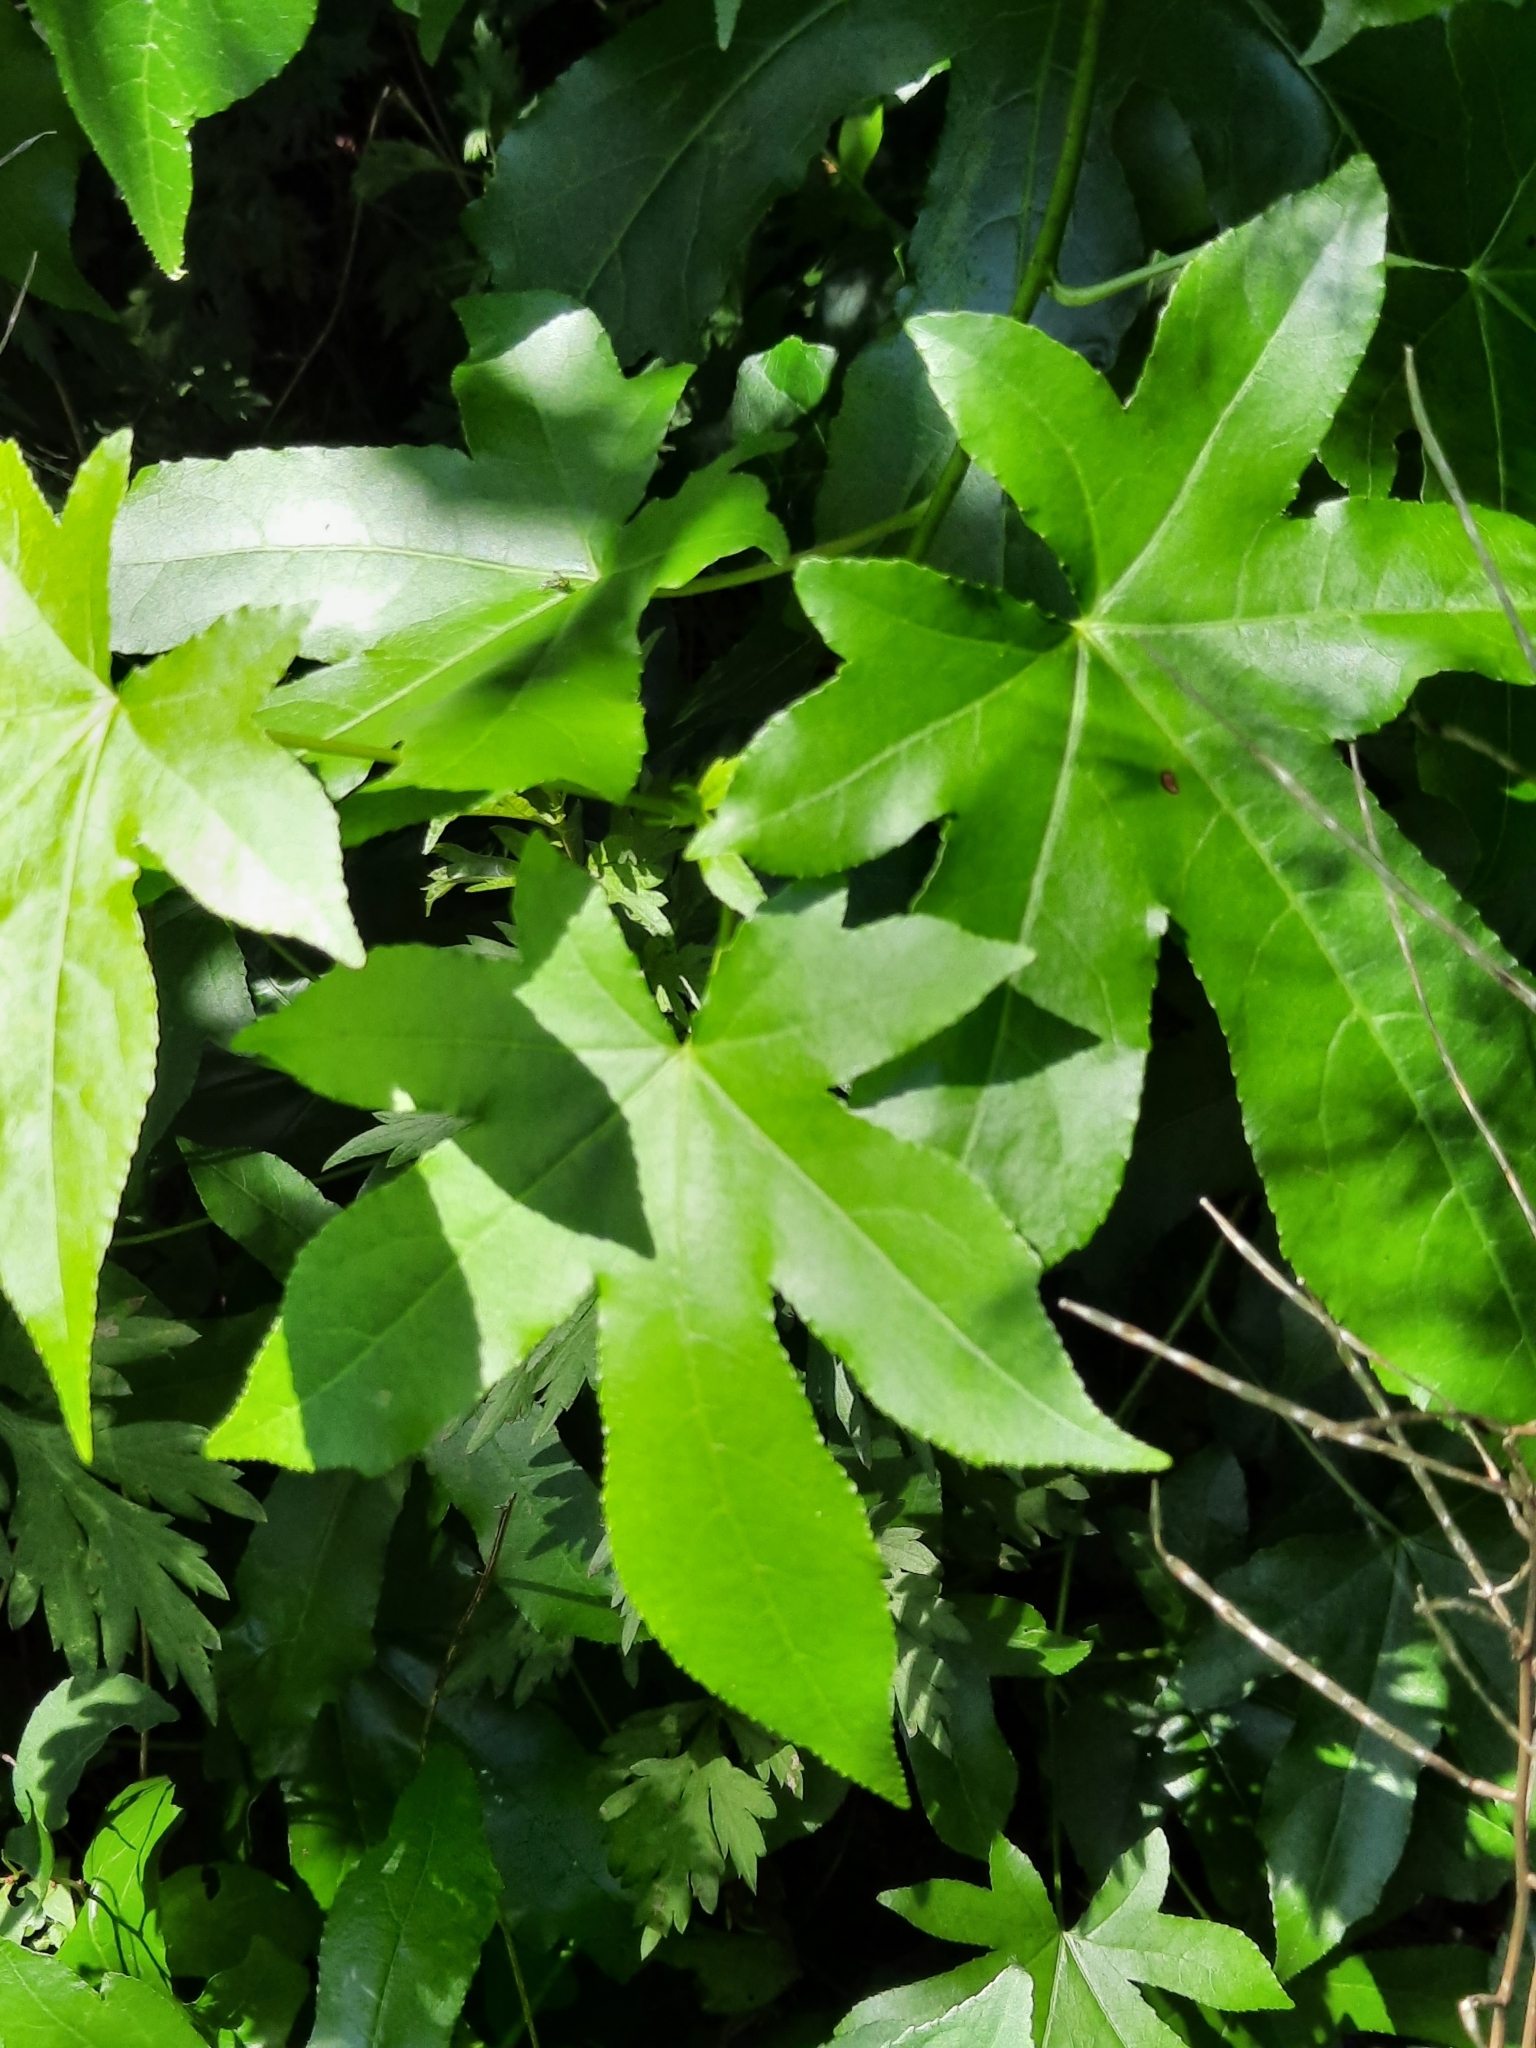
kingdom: Plantae
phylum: Tracheophyta
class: Magnoliopsida
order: Saxifragales
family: Altingiaceae
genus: Liquidambar
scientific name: Liquidambar styraciflua
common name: Sweet gum
